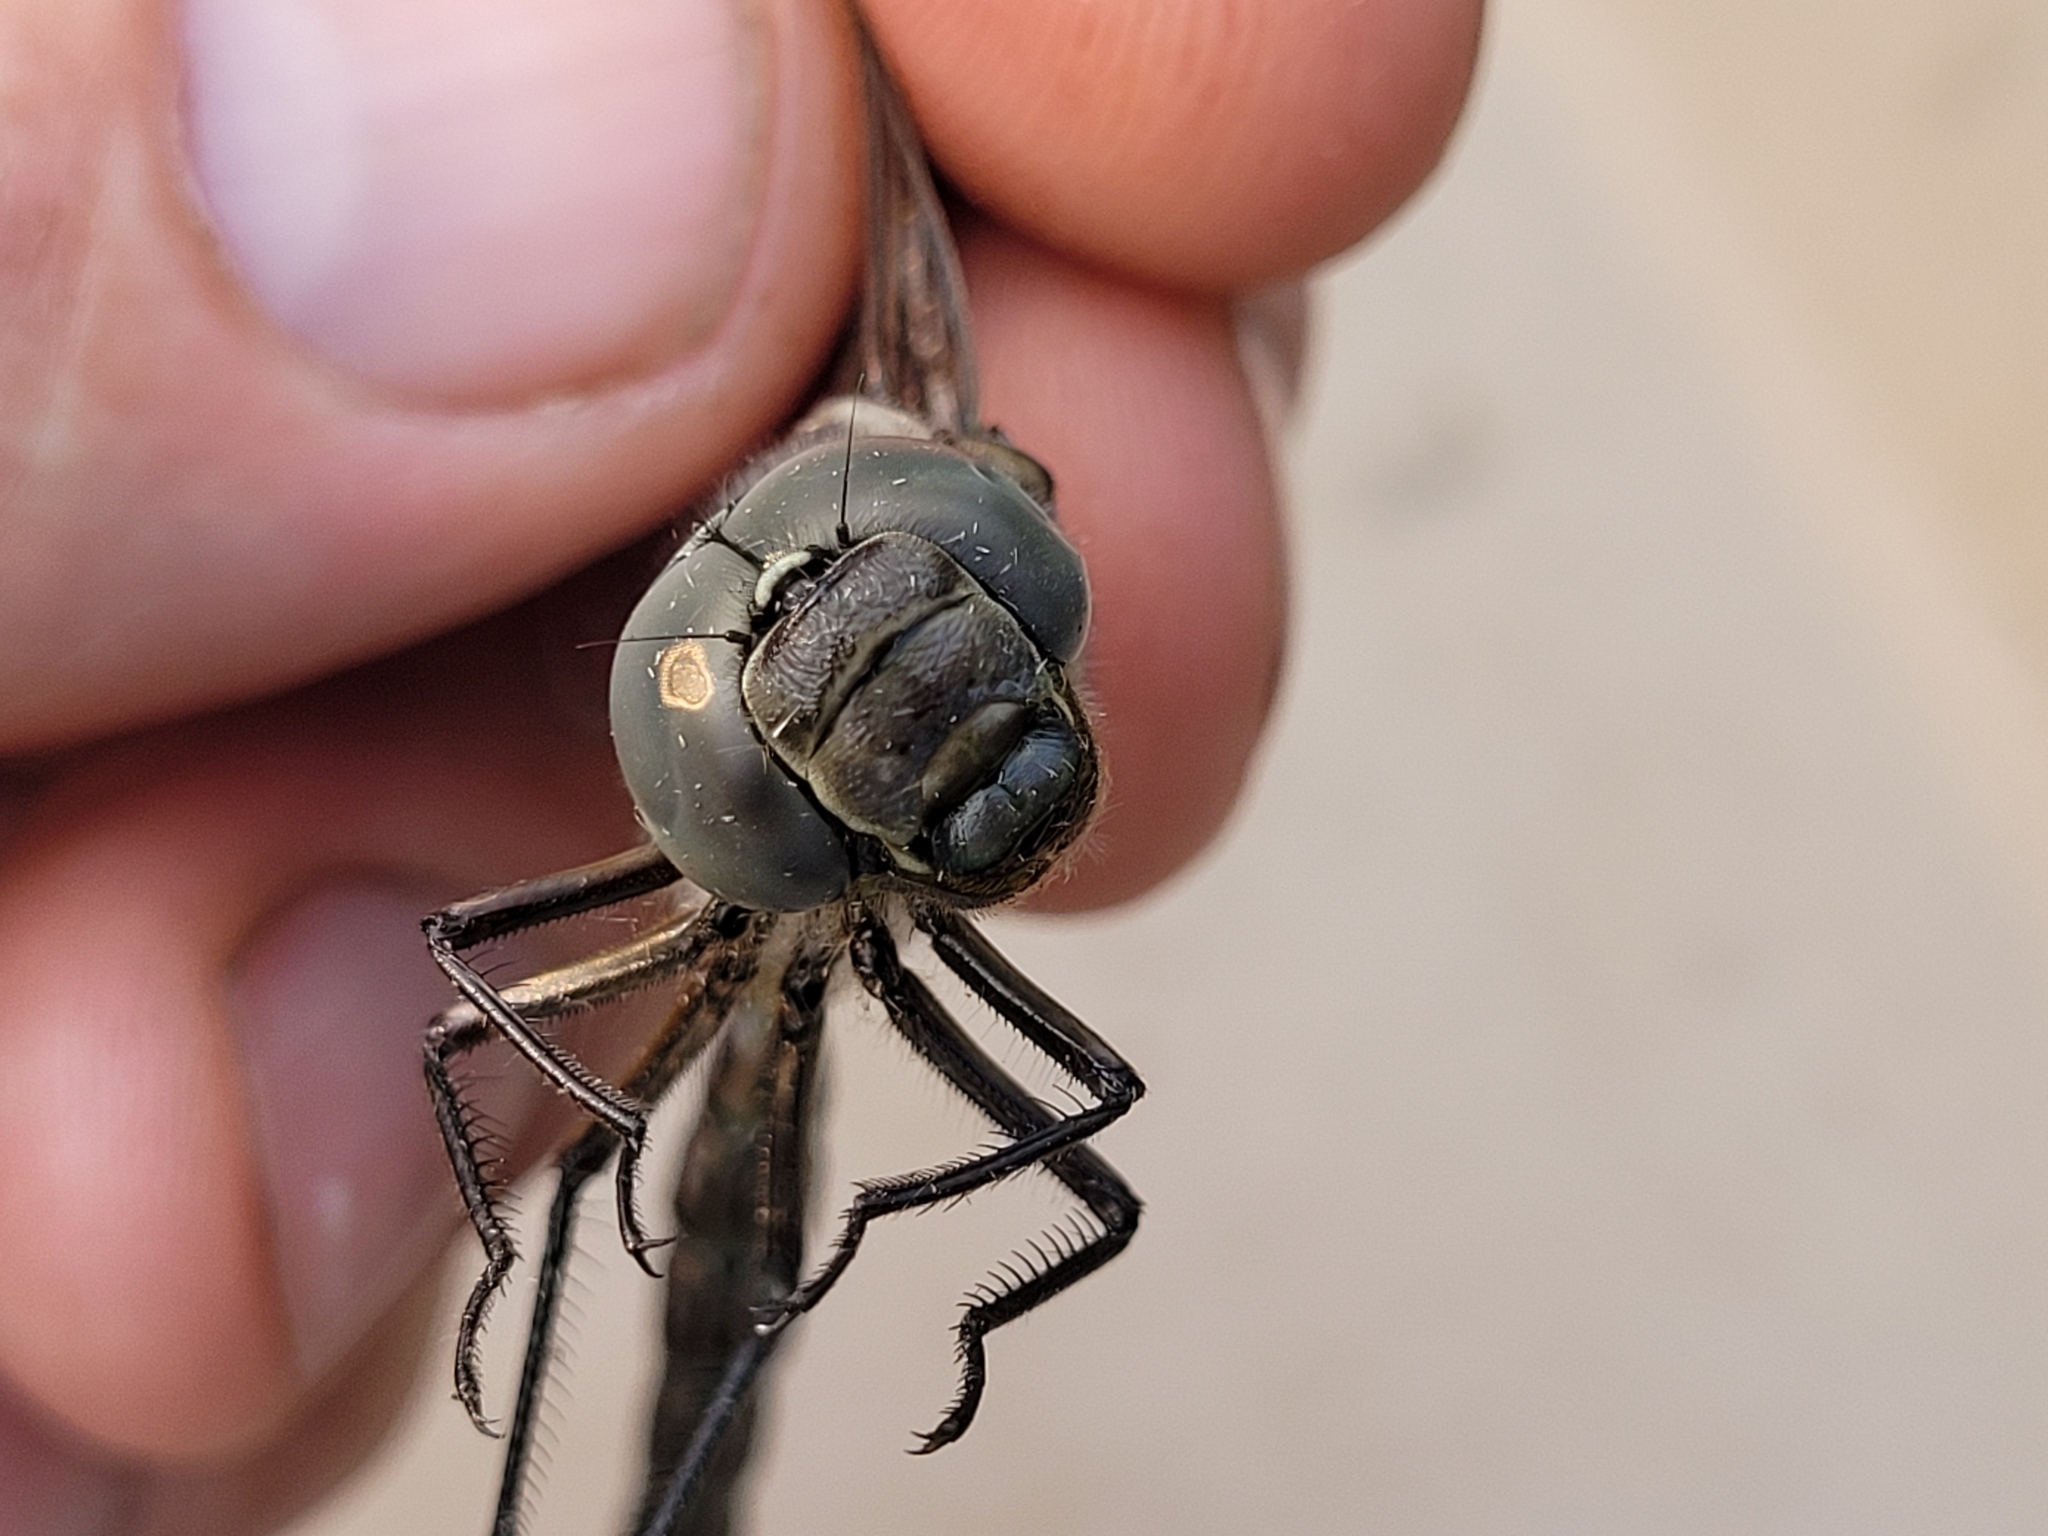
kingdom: Animalia
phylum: Arthropoda
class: Insecta
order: Odonata
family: Aeshnidae
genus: Aeshna
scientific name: Aeshna eremita
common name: Lake darner
